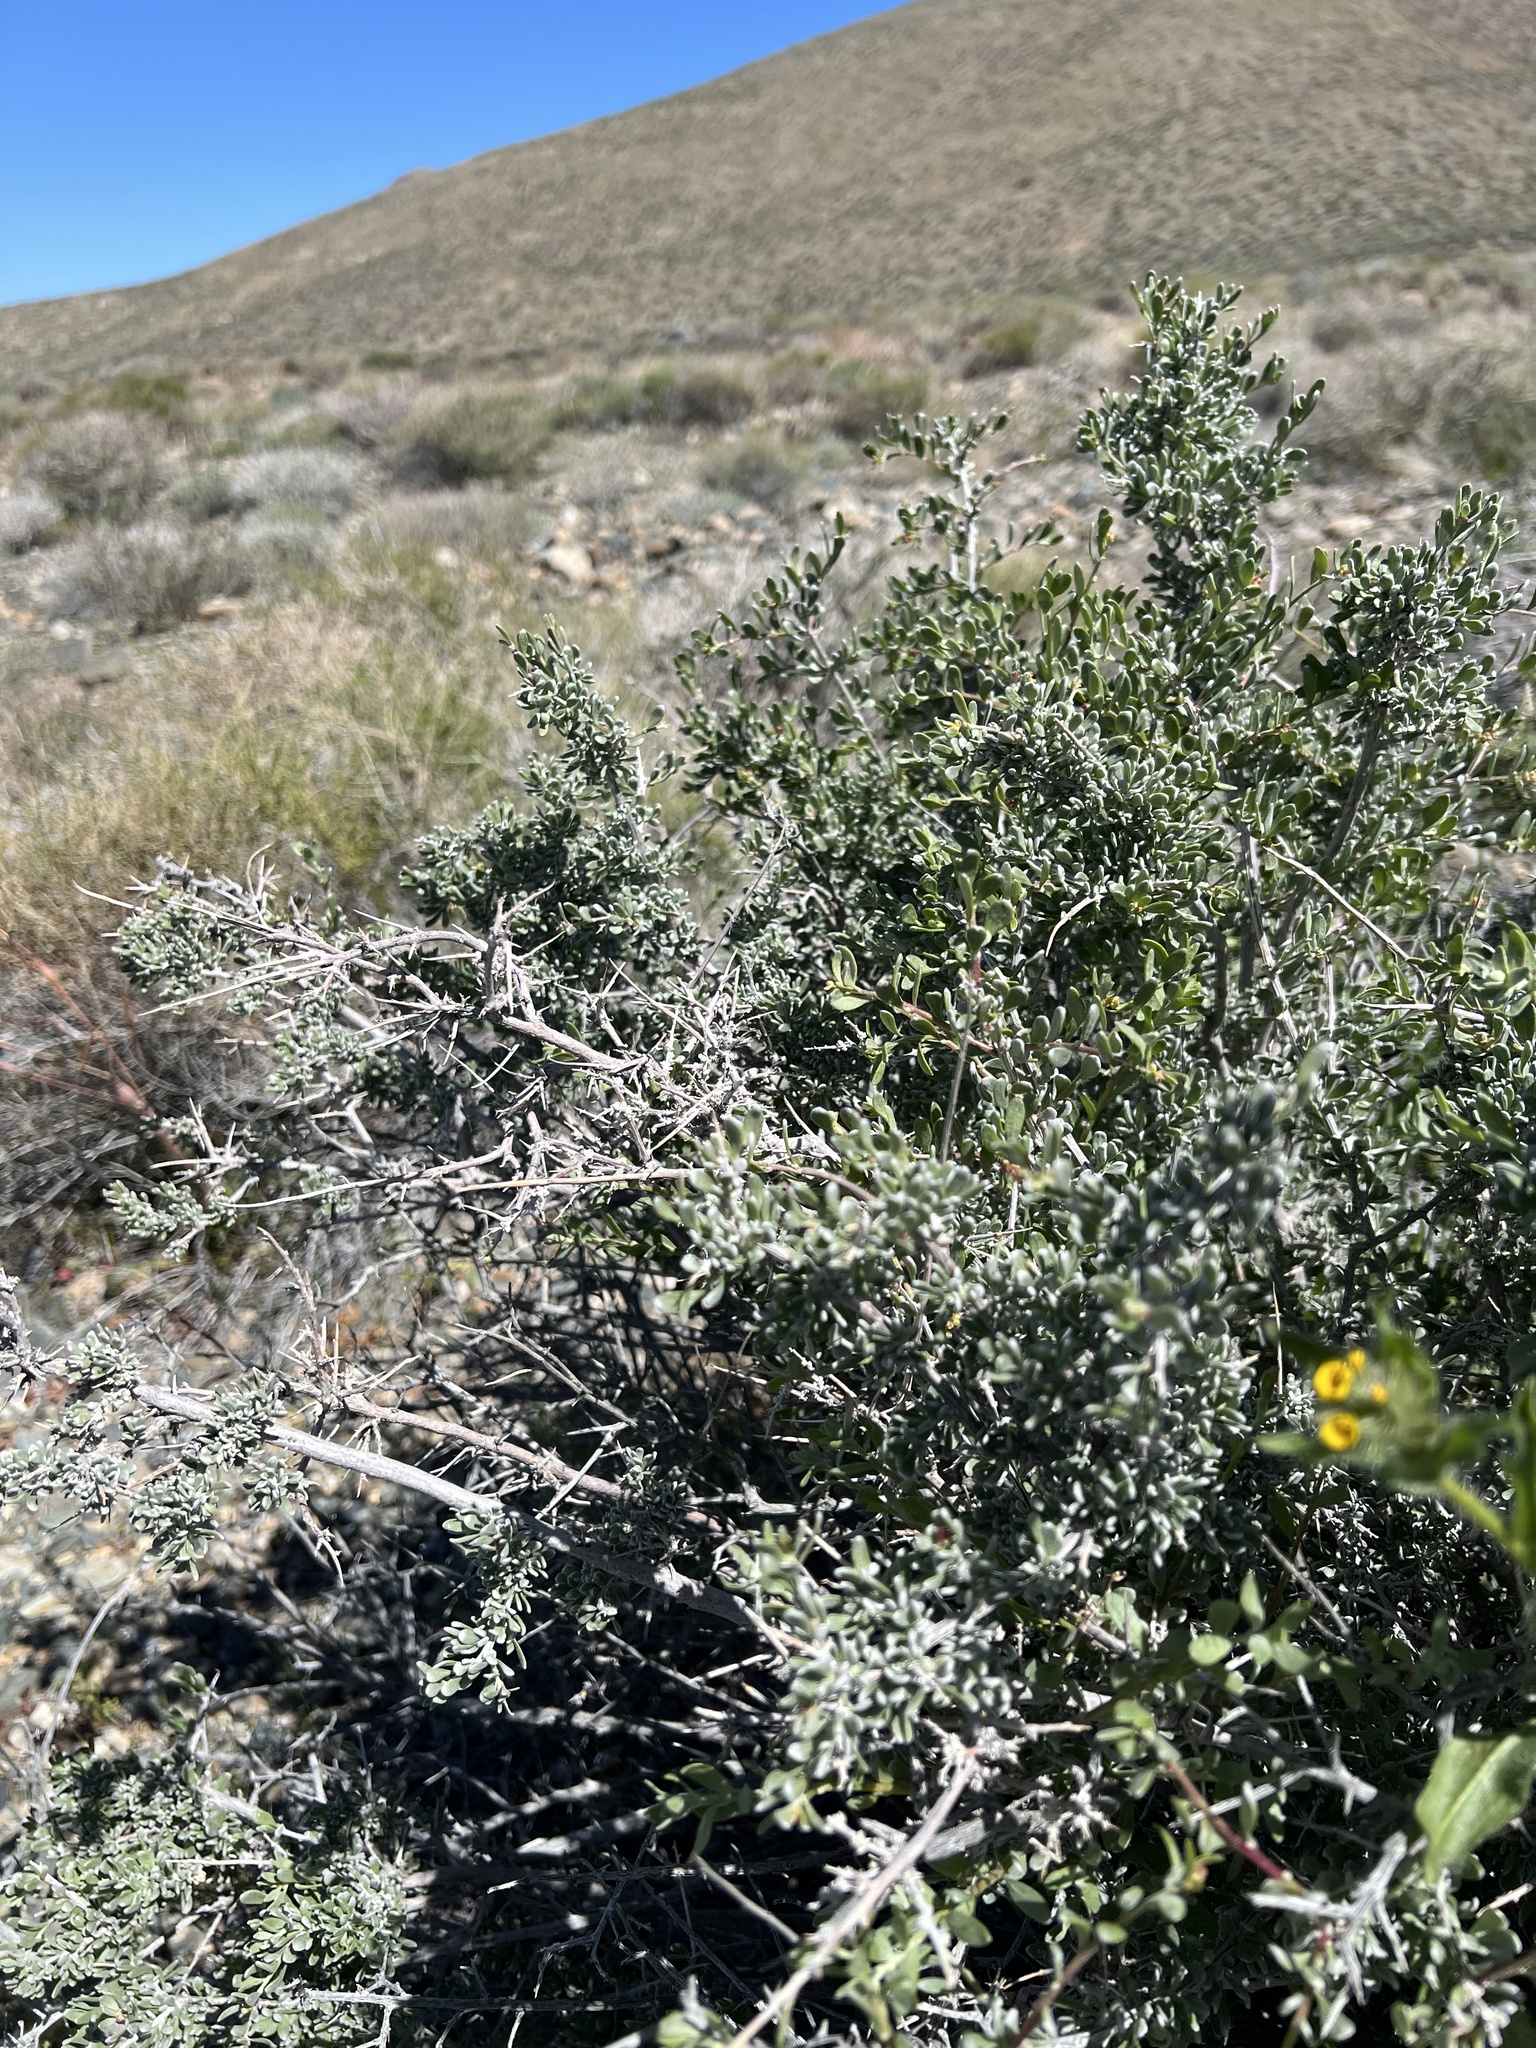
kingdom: Plantae
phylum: Tracheophyta
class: Magnoliopsida
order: Caryophyllales
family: Amaranthaceae
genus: Grayia
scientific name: Grayia spinosa
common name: Spiny hopsage
